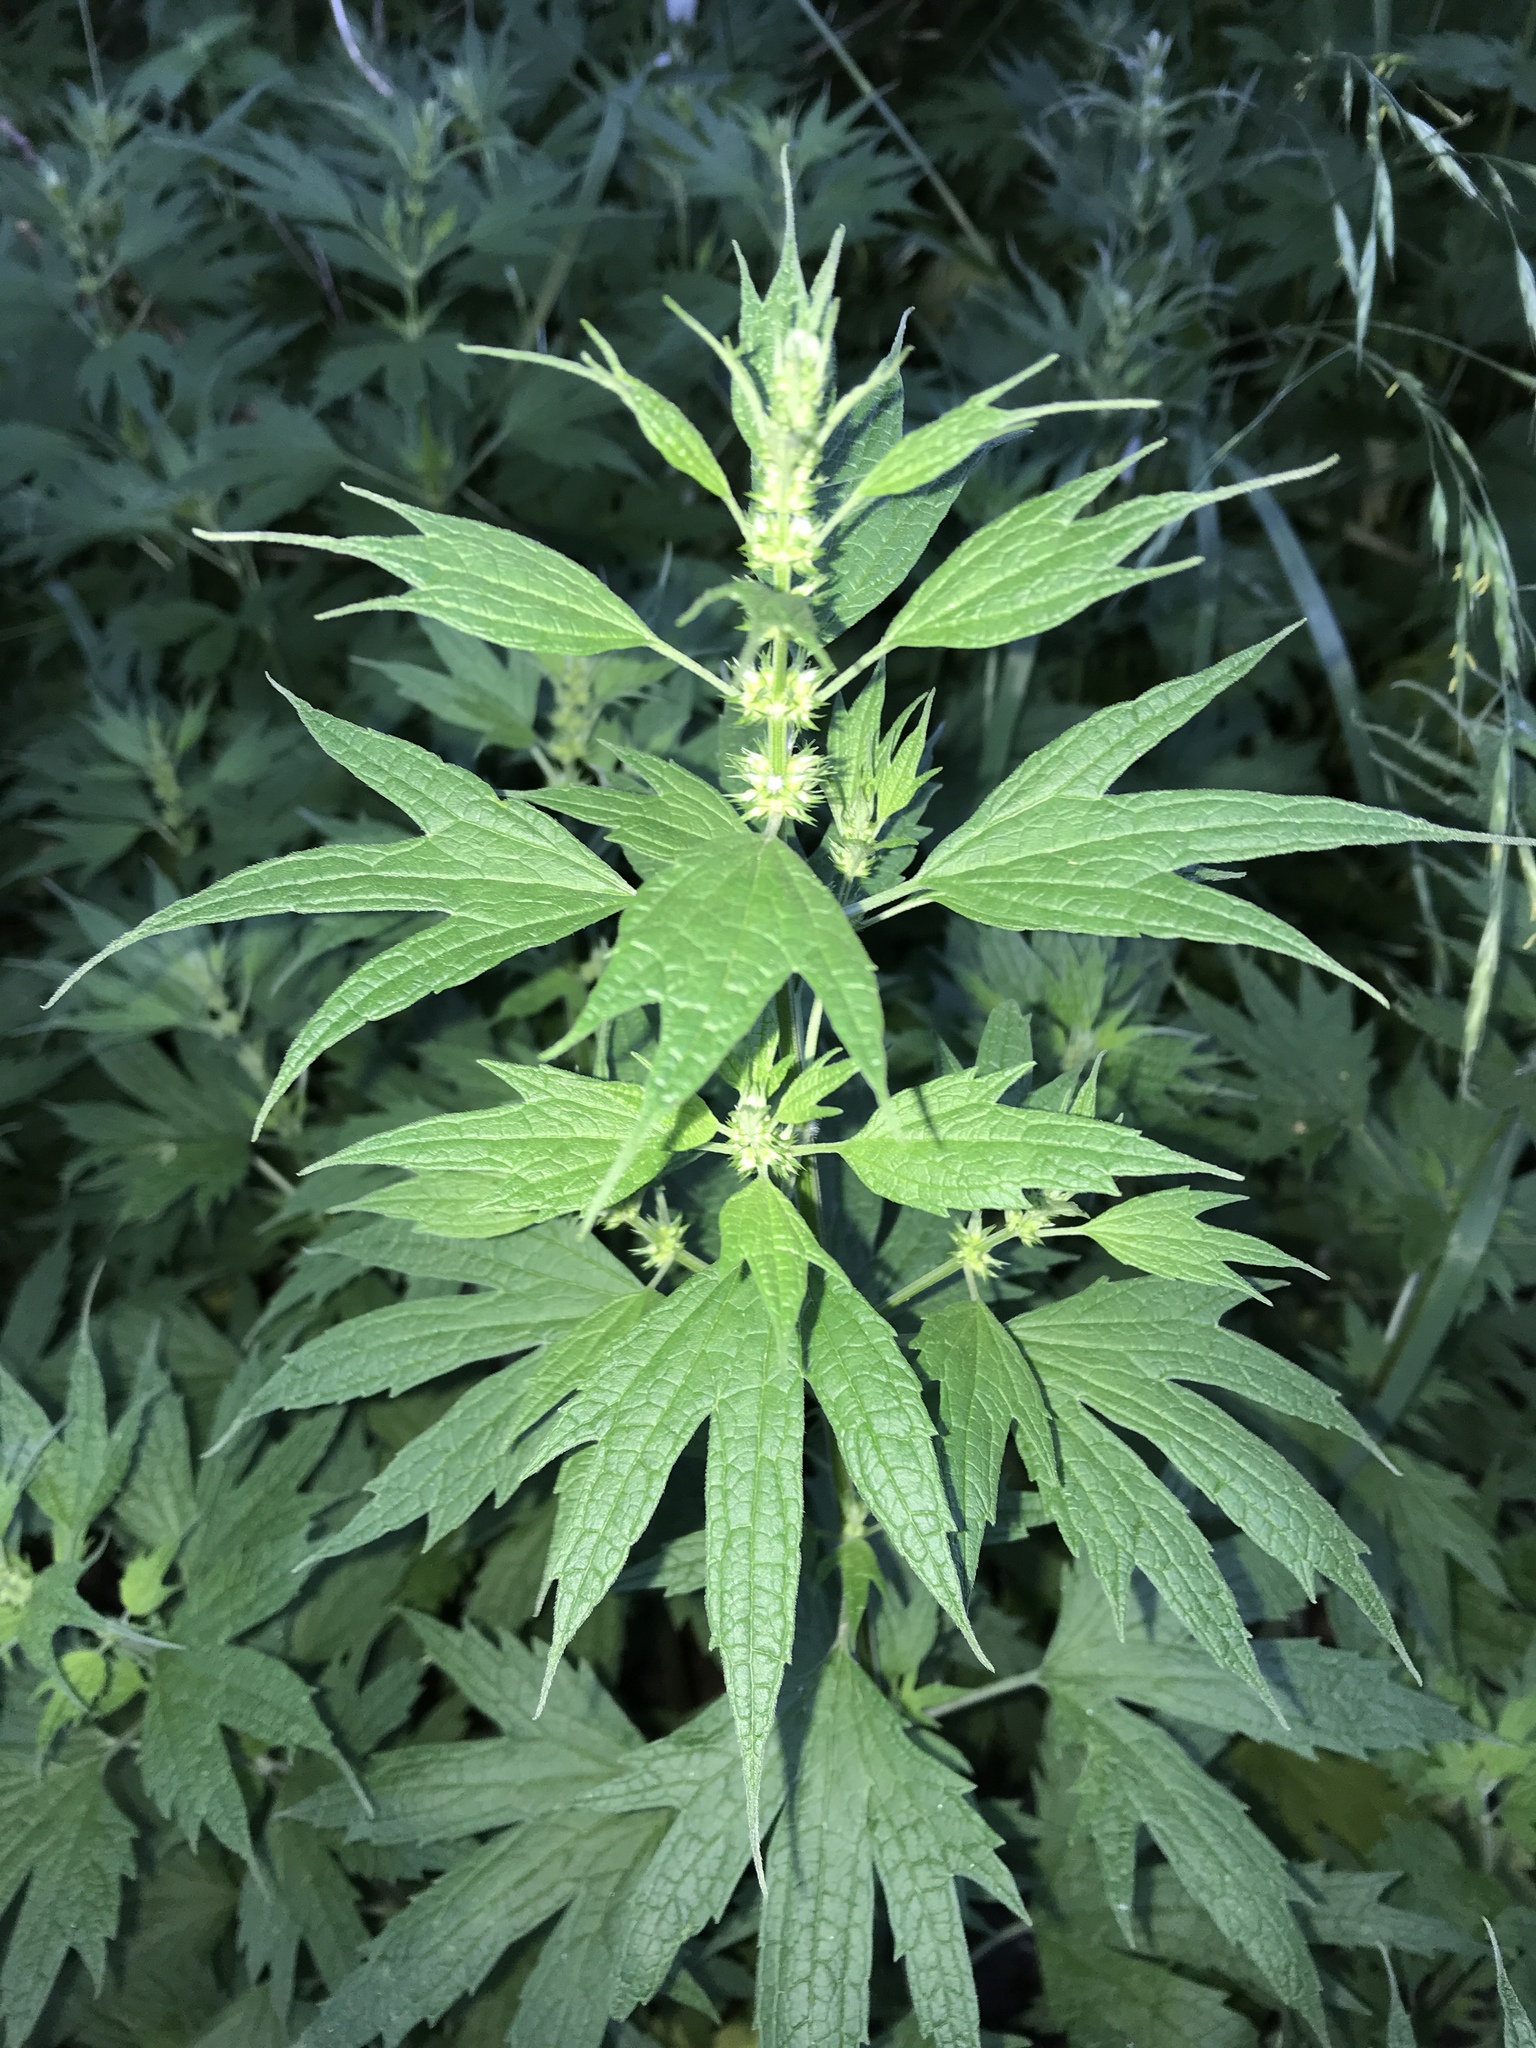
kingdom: Plantae
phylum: Tracheophyta
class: Magnoliopsida
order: Lamiales
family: Lamiaceae
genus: Leonurus
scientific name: Leonurus cardiaca
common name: Motherwort
